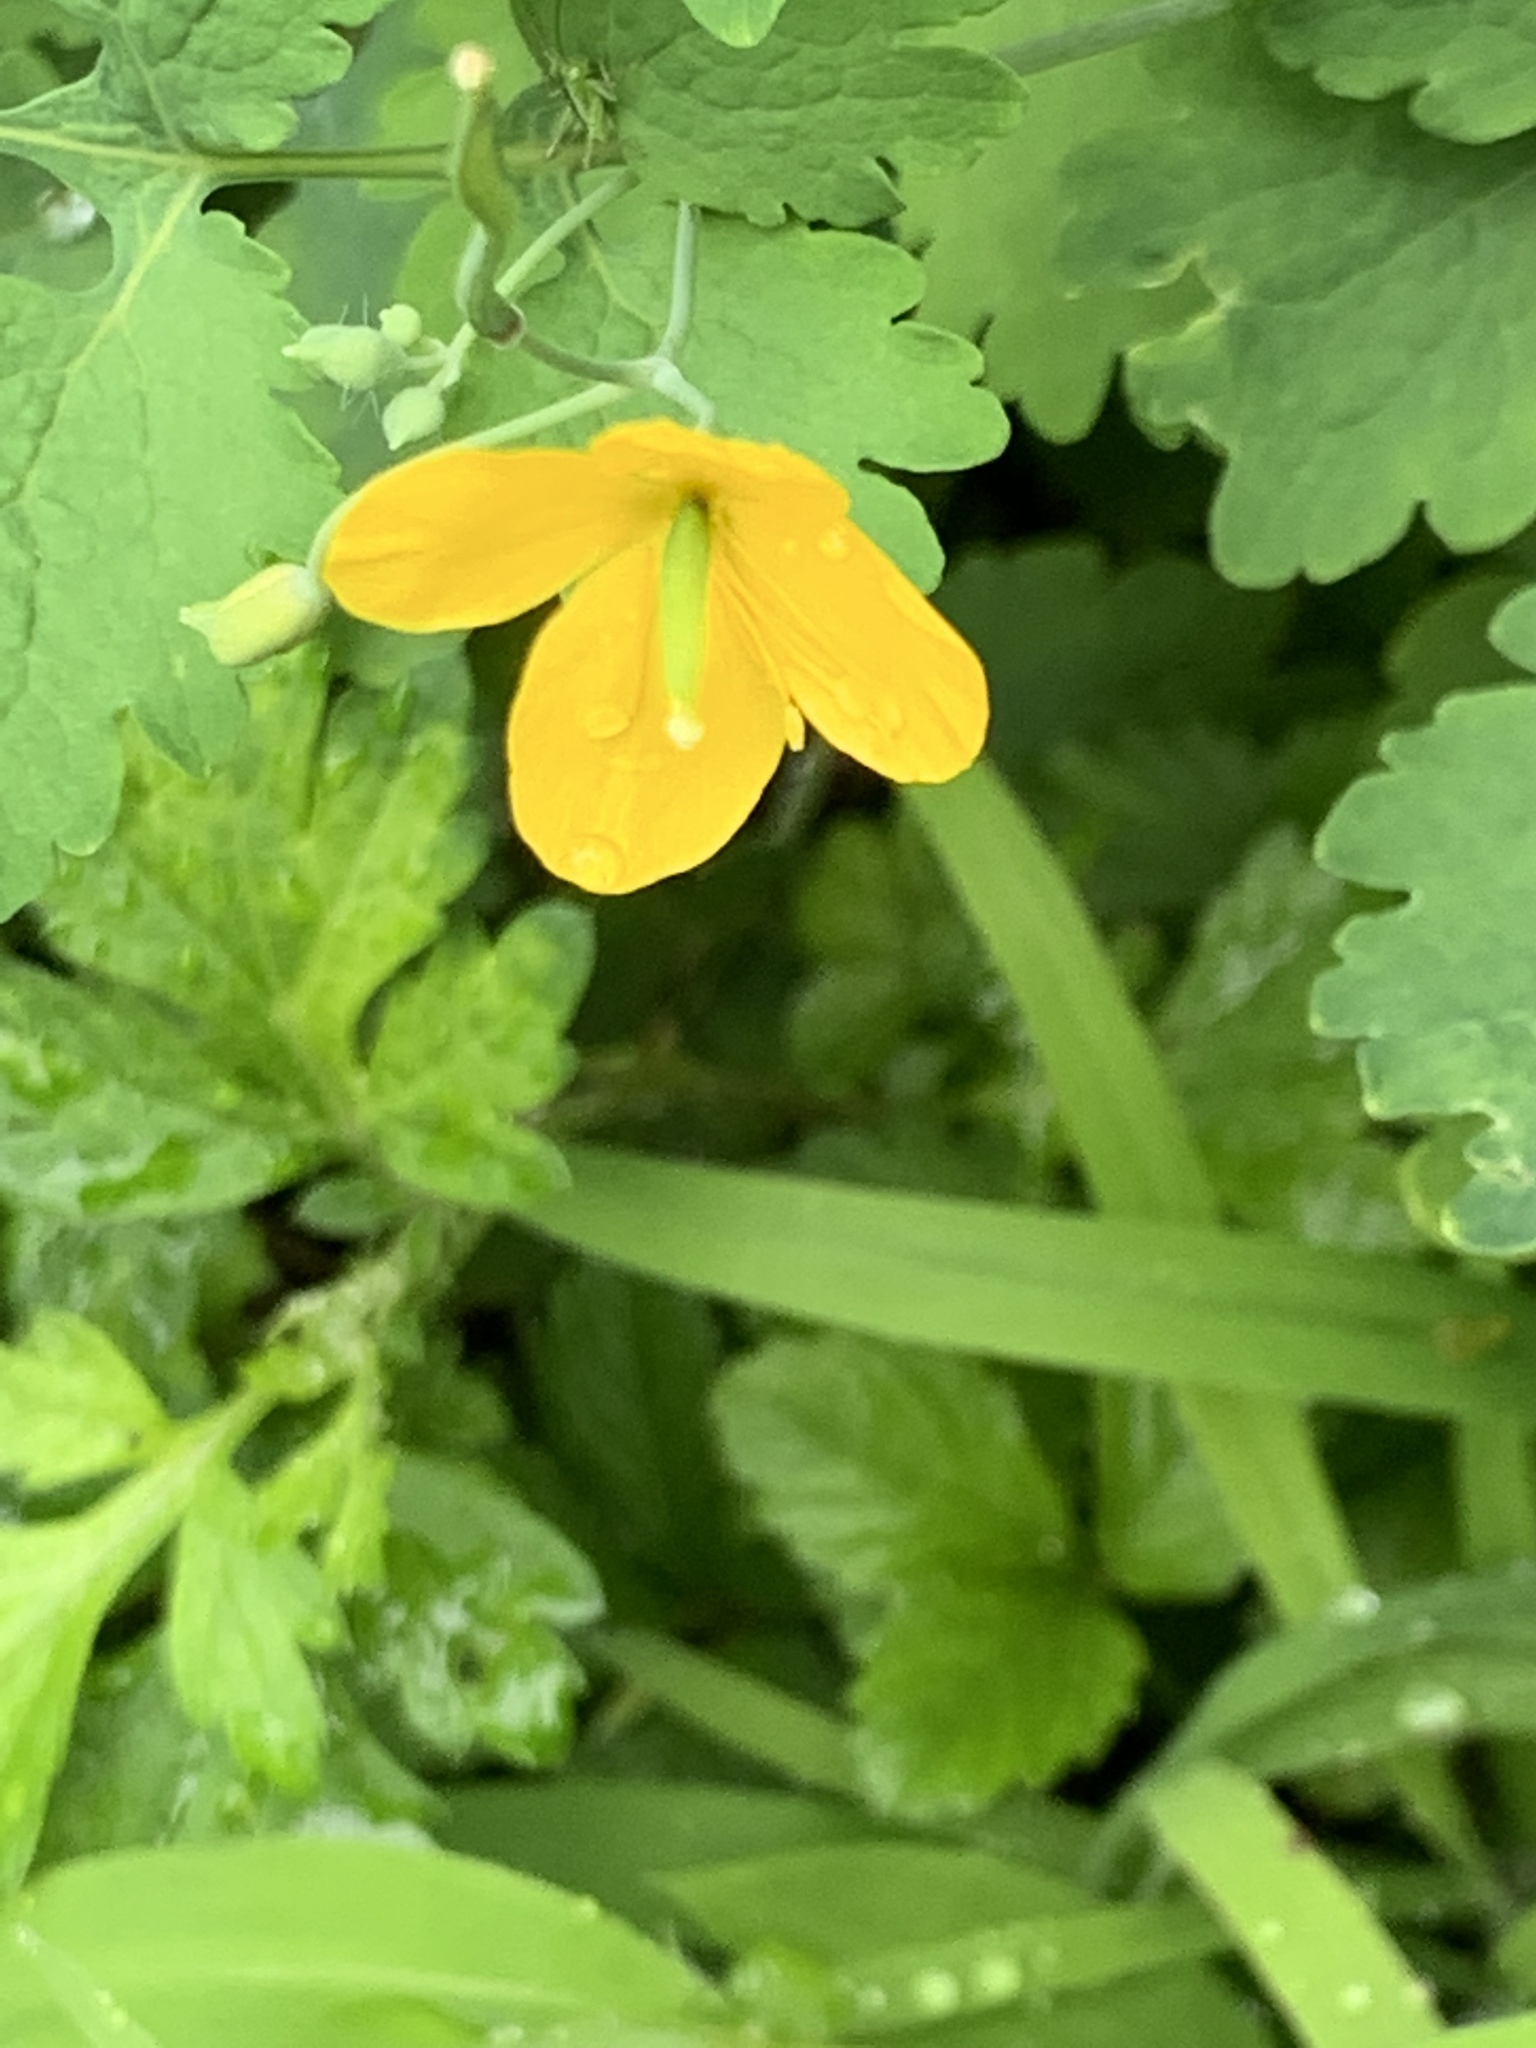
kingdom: Plantae
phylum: Tracheophyta
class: Magnoliopsida
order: Ranunculales
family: Papaveraceae
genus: Chelidonium
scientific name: Chelidonium majus
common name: Greater celandine
